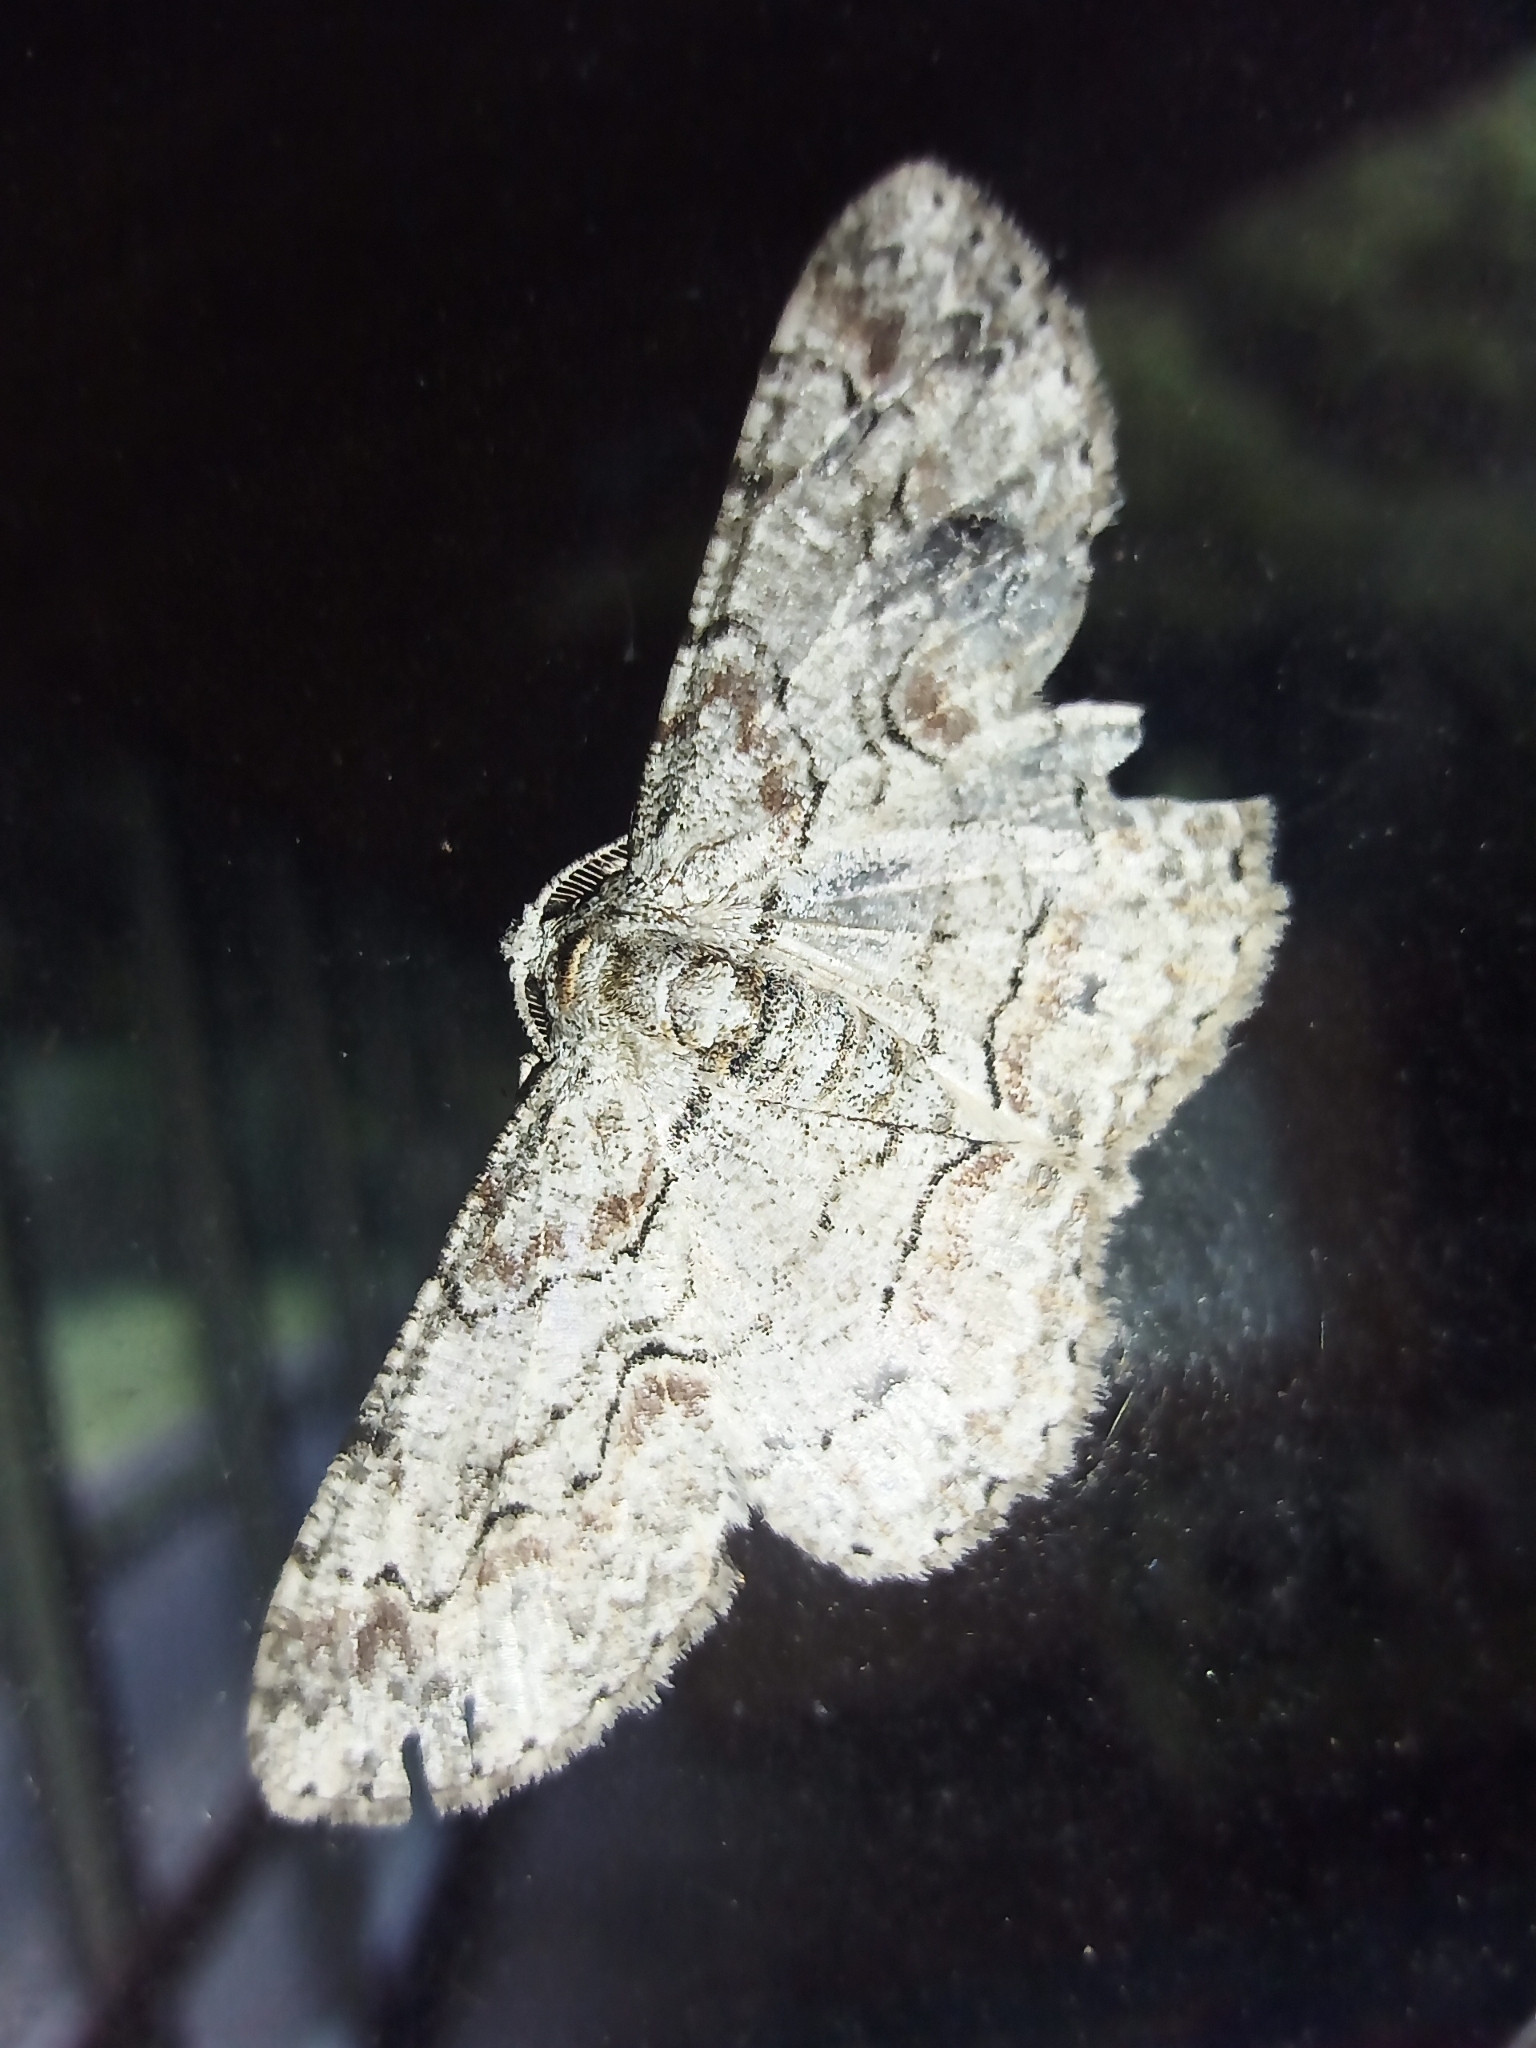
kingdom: Animalia
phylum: Arthropoda
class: Insecta
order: Lepidoptera
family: Geometridae
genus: Iridopsis
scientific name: Iridopsis defectaria
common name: Brown-shaded gray
